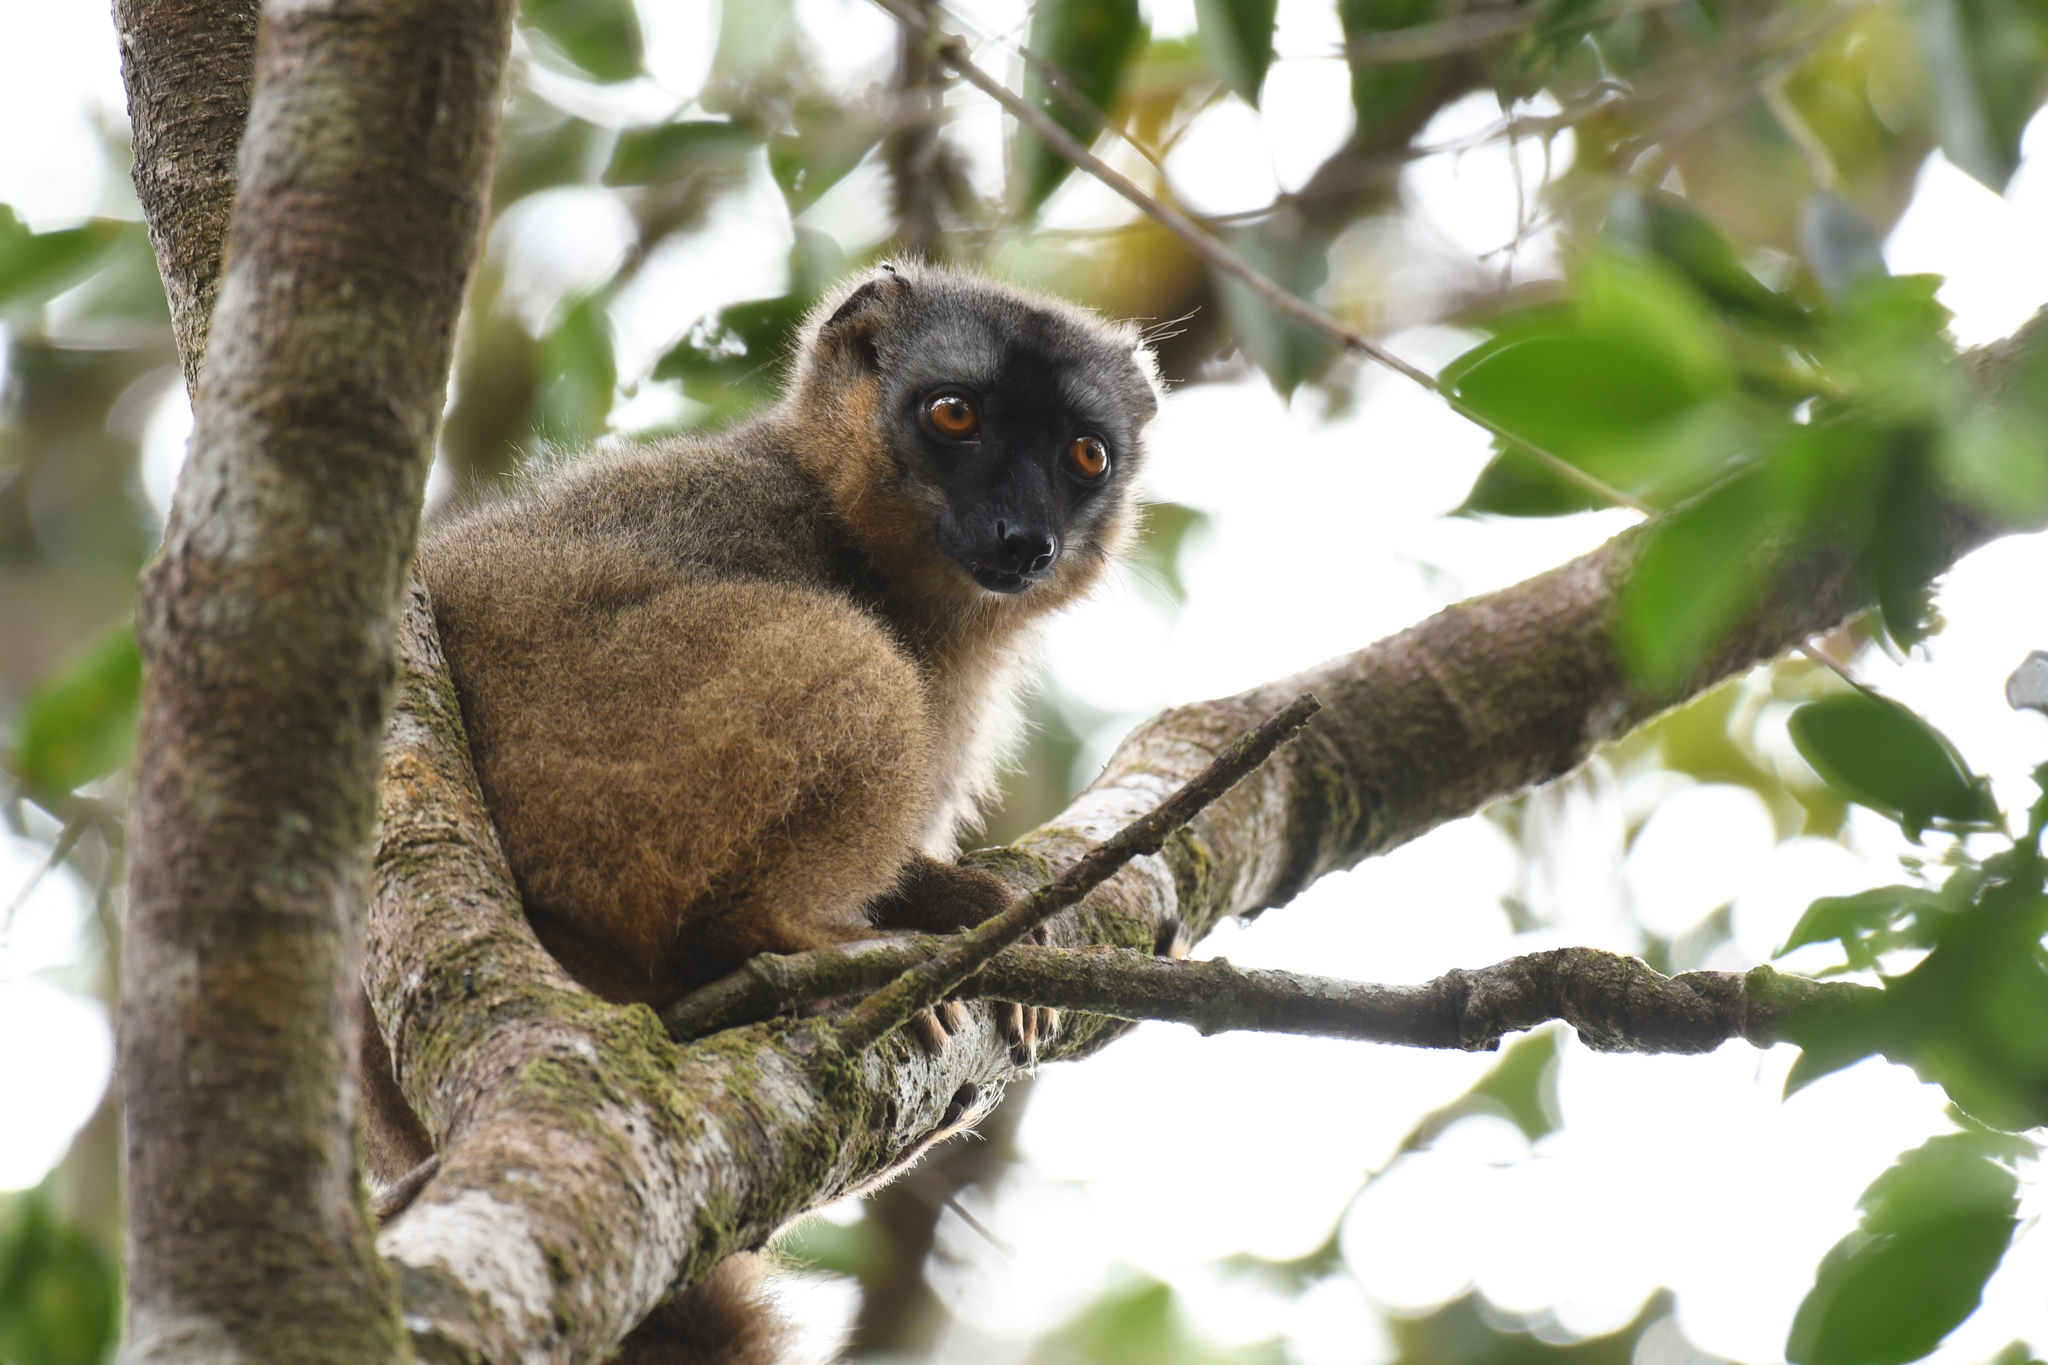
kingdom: Animalia
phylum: Chordata
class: Mammalia
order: Primates
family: Lemuridae
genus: Eulemur
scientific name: Eulemur rufifrons
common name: Red-fronted brown lemur
